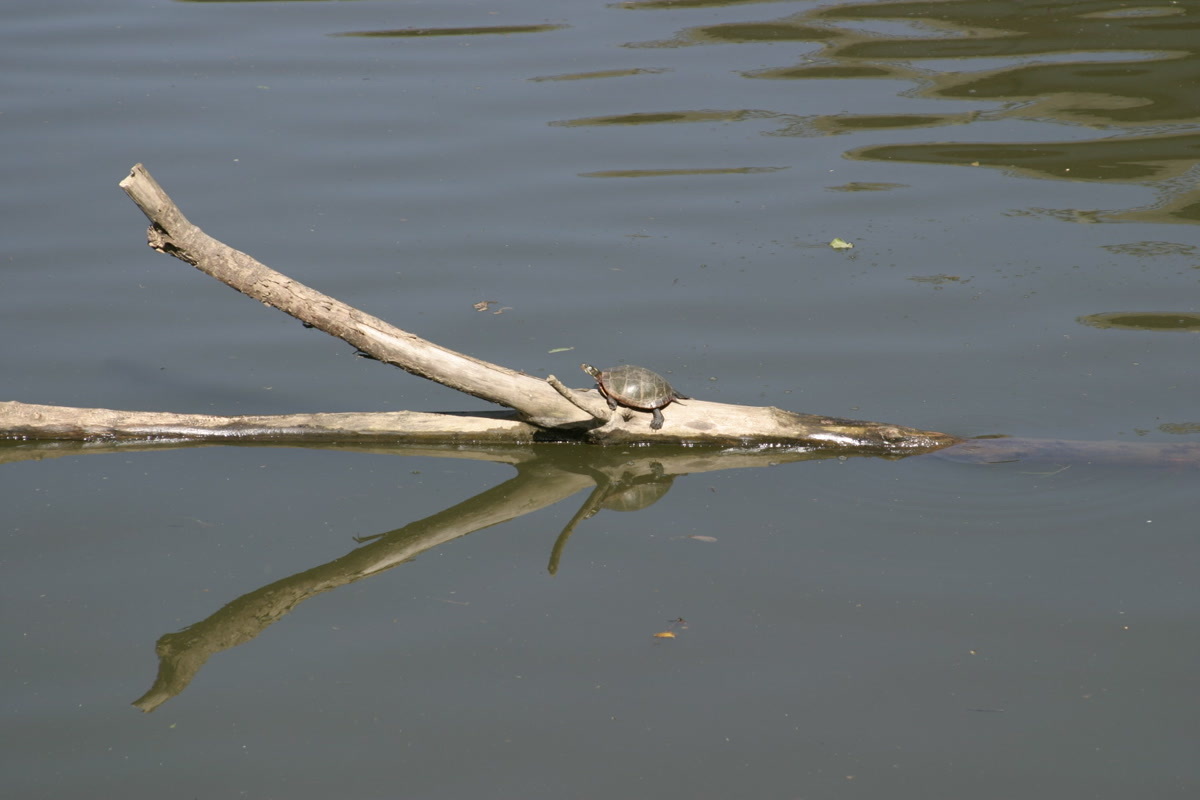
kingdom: Animalia
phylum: Chordata
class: Testudines
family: Emydidae
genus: Chrysemys
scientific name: Chrysemys picta
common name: Painted turtle
